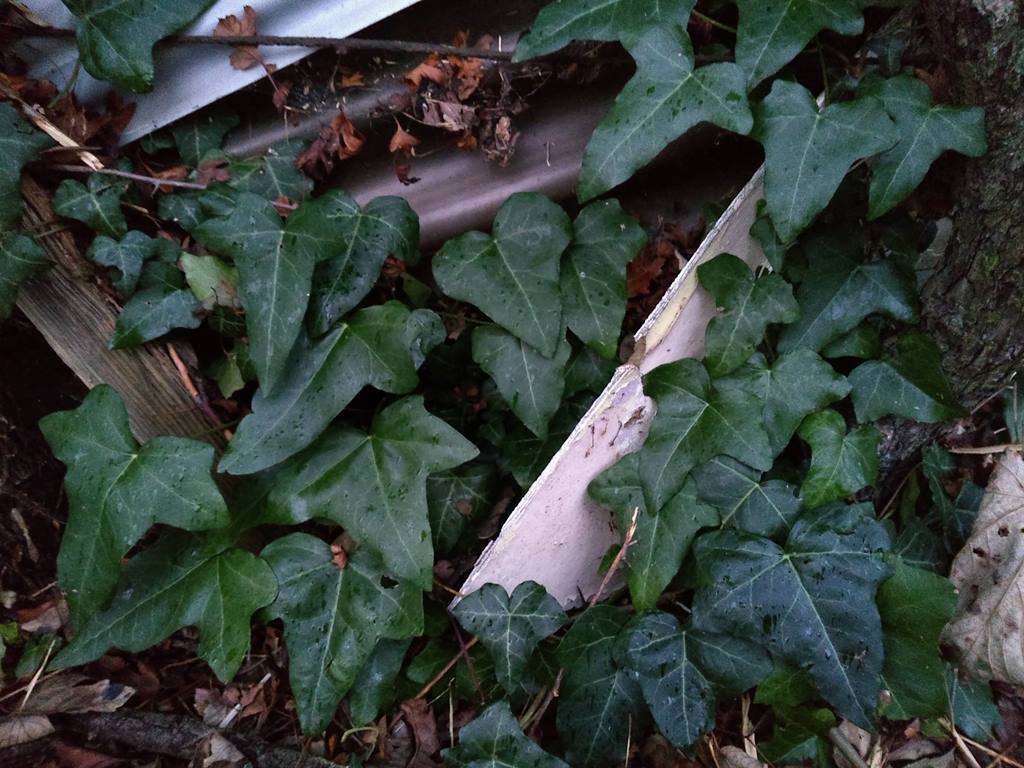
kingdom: Plantae
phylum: Tracheophyta
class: Magnoliopsida
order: Apiales
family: Araliaceae
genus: Hedera
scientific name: Hedera helix
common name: Ivy
